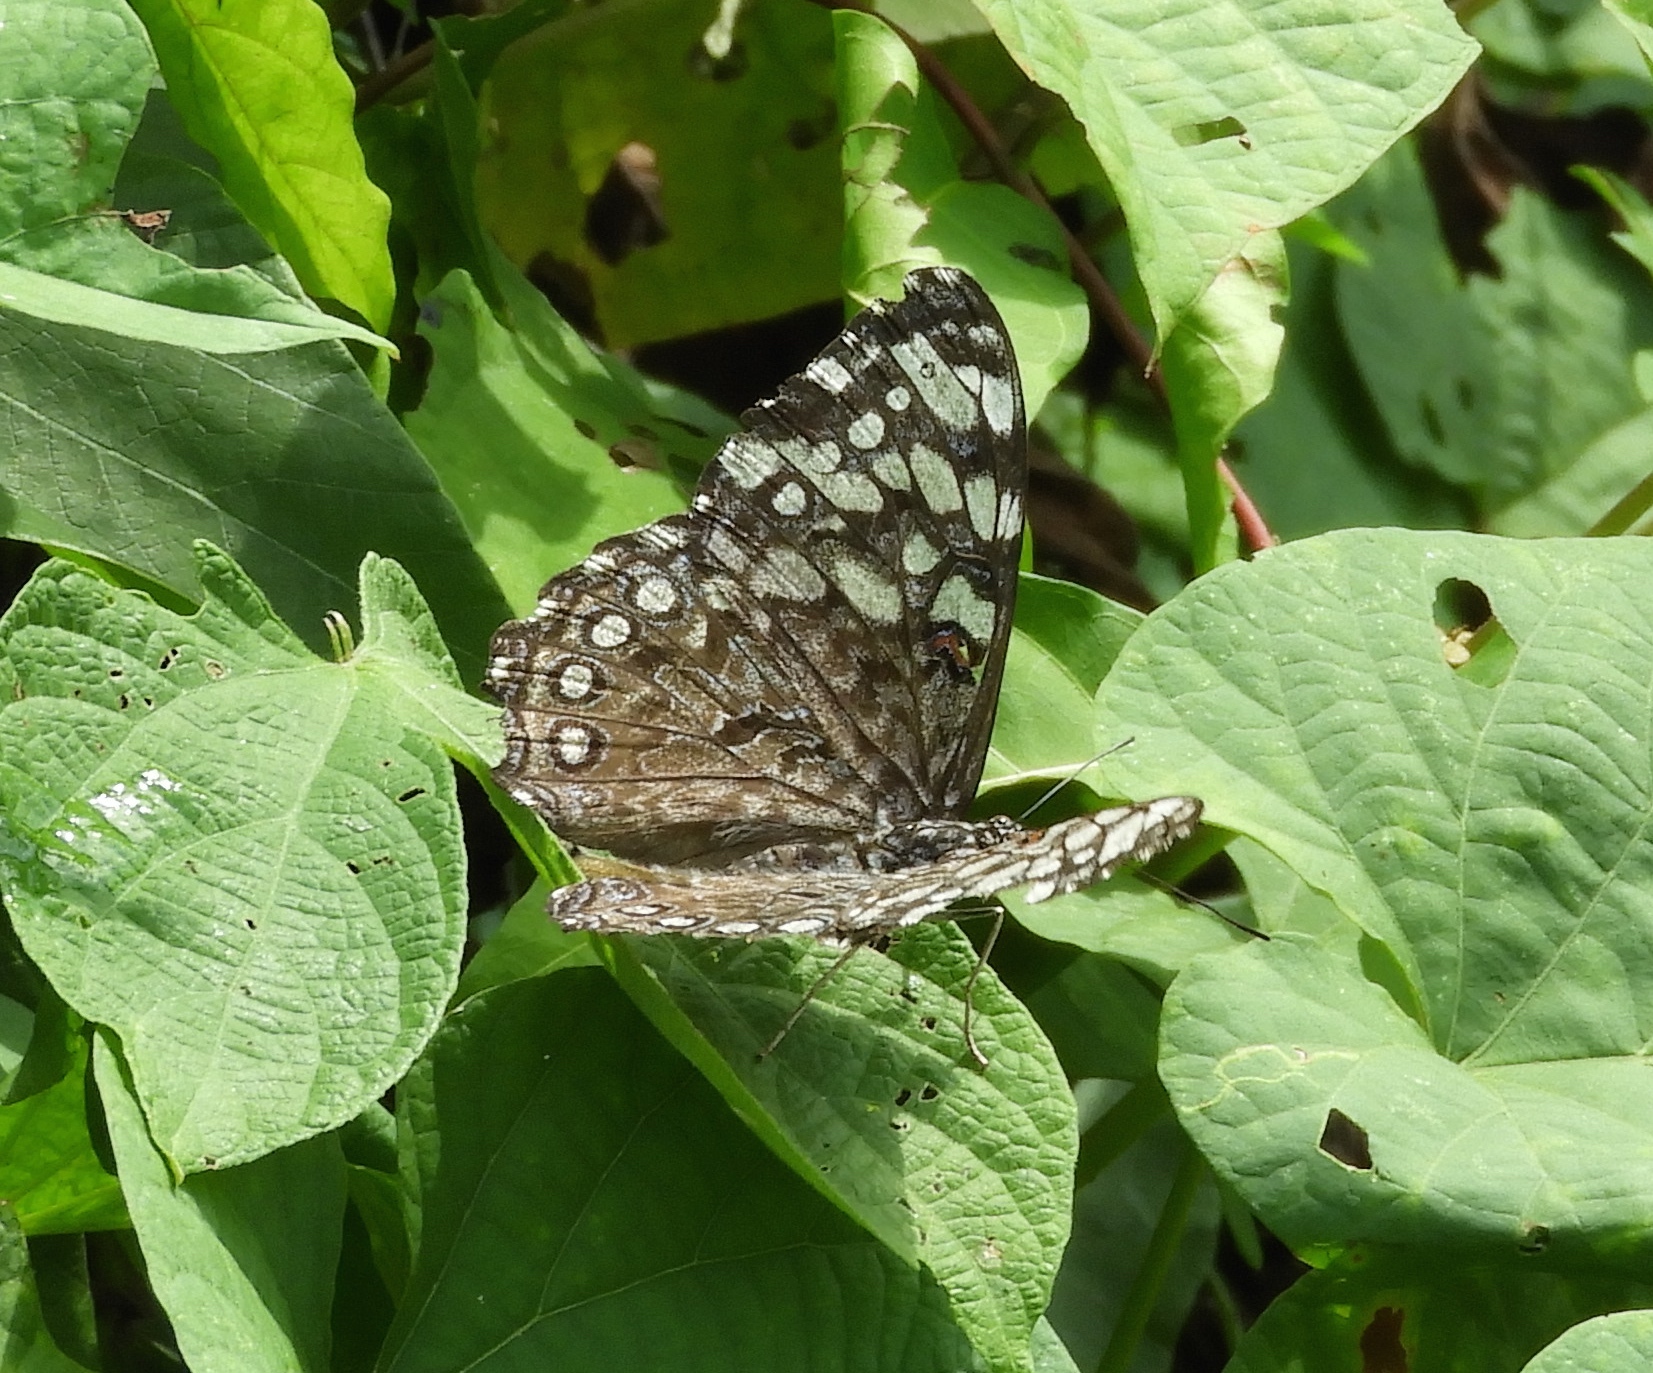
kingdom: Animalia
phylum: Arthropoda
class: Insecta
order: Lepidoptera
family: Nymphalidae
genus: Hamadryas
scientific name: Hamadryas guatemalena
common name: Guatemalan cracker
